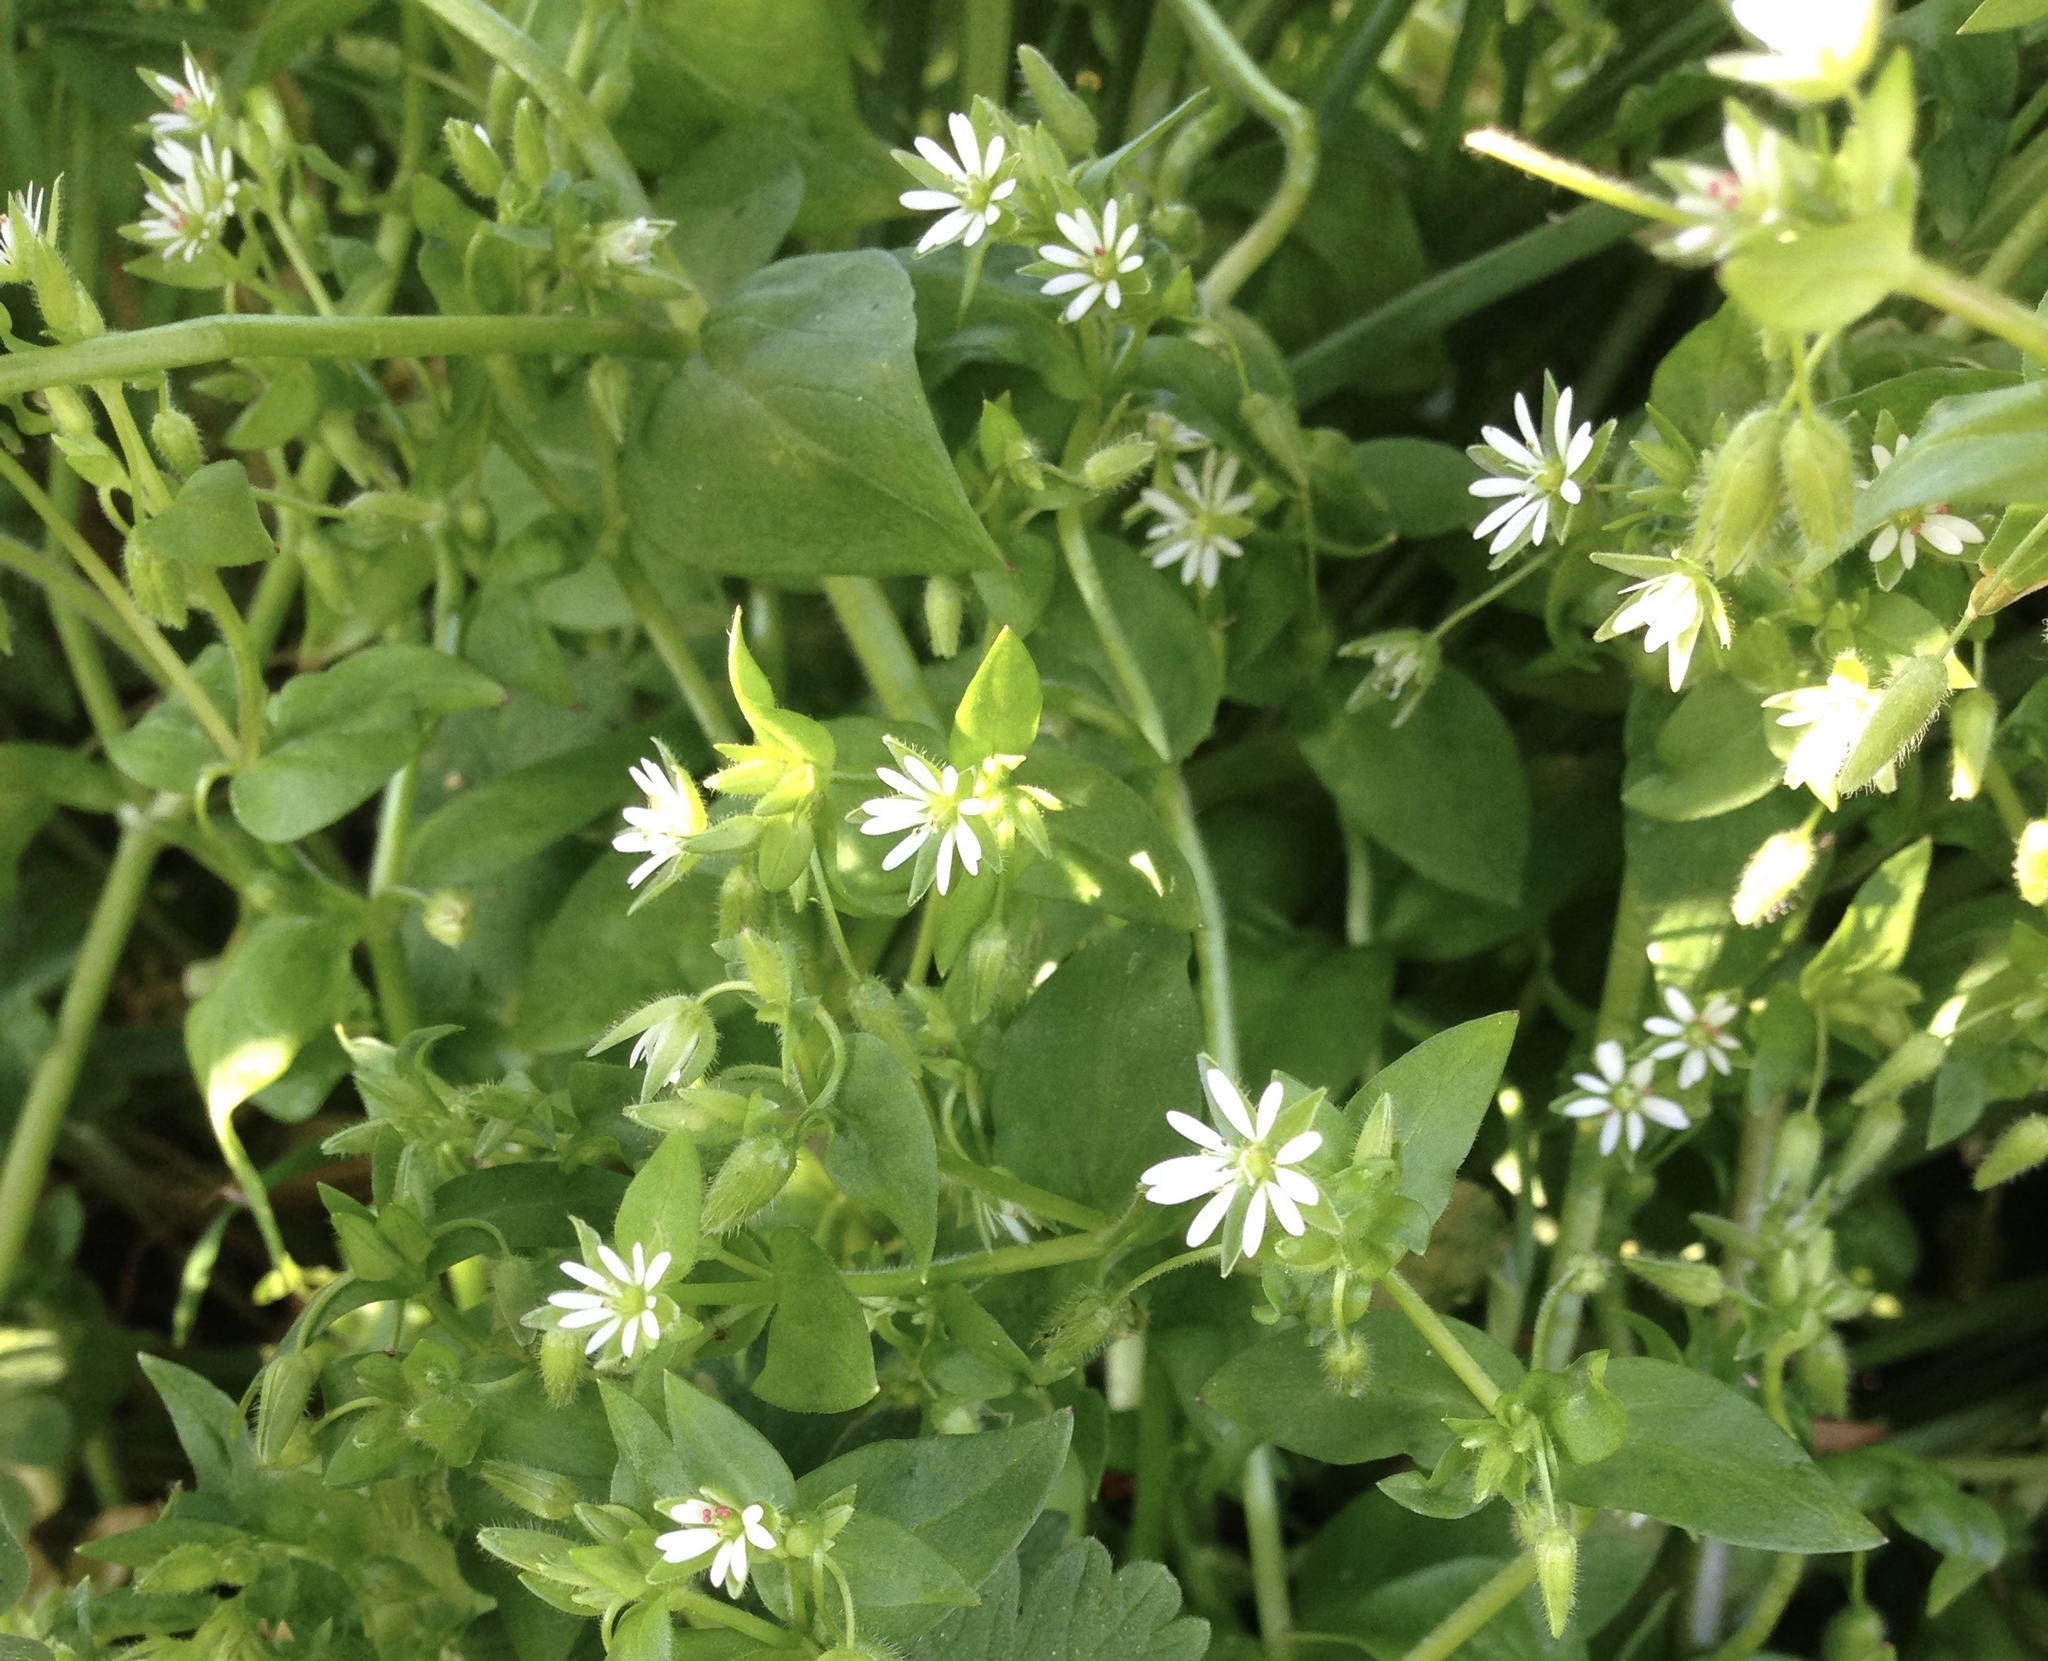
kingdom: Plantae
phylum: Tracheophyta
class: Magnoliopsida
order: Caryophyllales
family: Caryophyllaceae
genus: Stellaria
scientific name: Stellaria media
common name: Common chickweed
